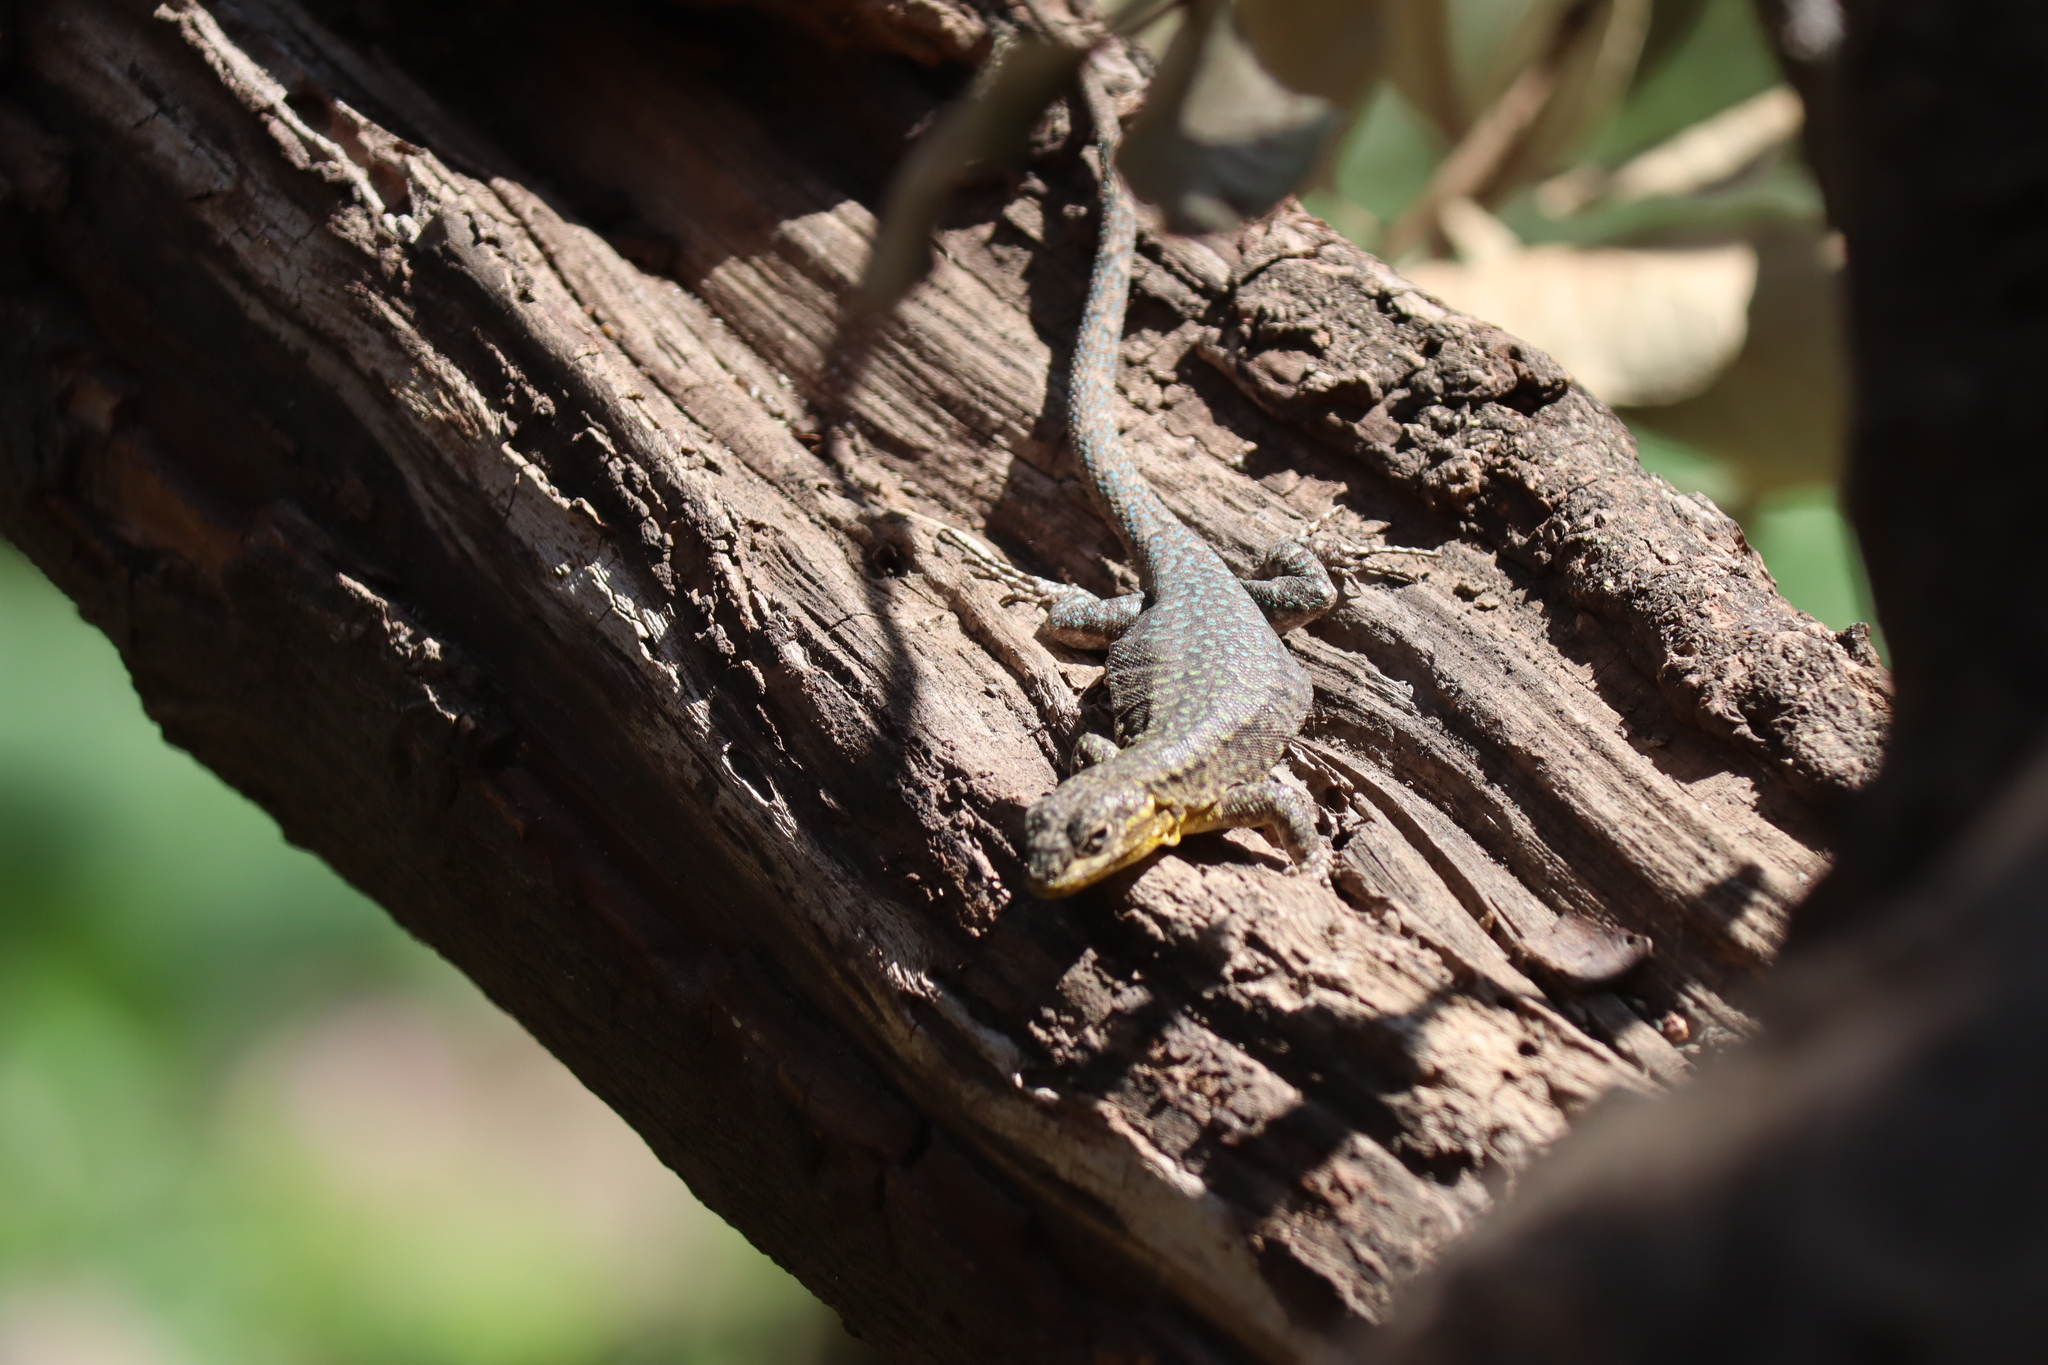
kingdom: Animalia
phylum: Chordata
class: Squamata
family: Liolaemidae
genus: Liolaemus
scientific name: Liolaemus tenuis
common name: Thin tree iguana
